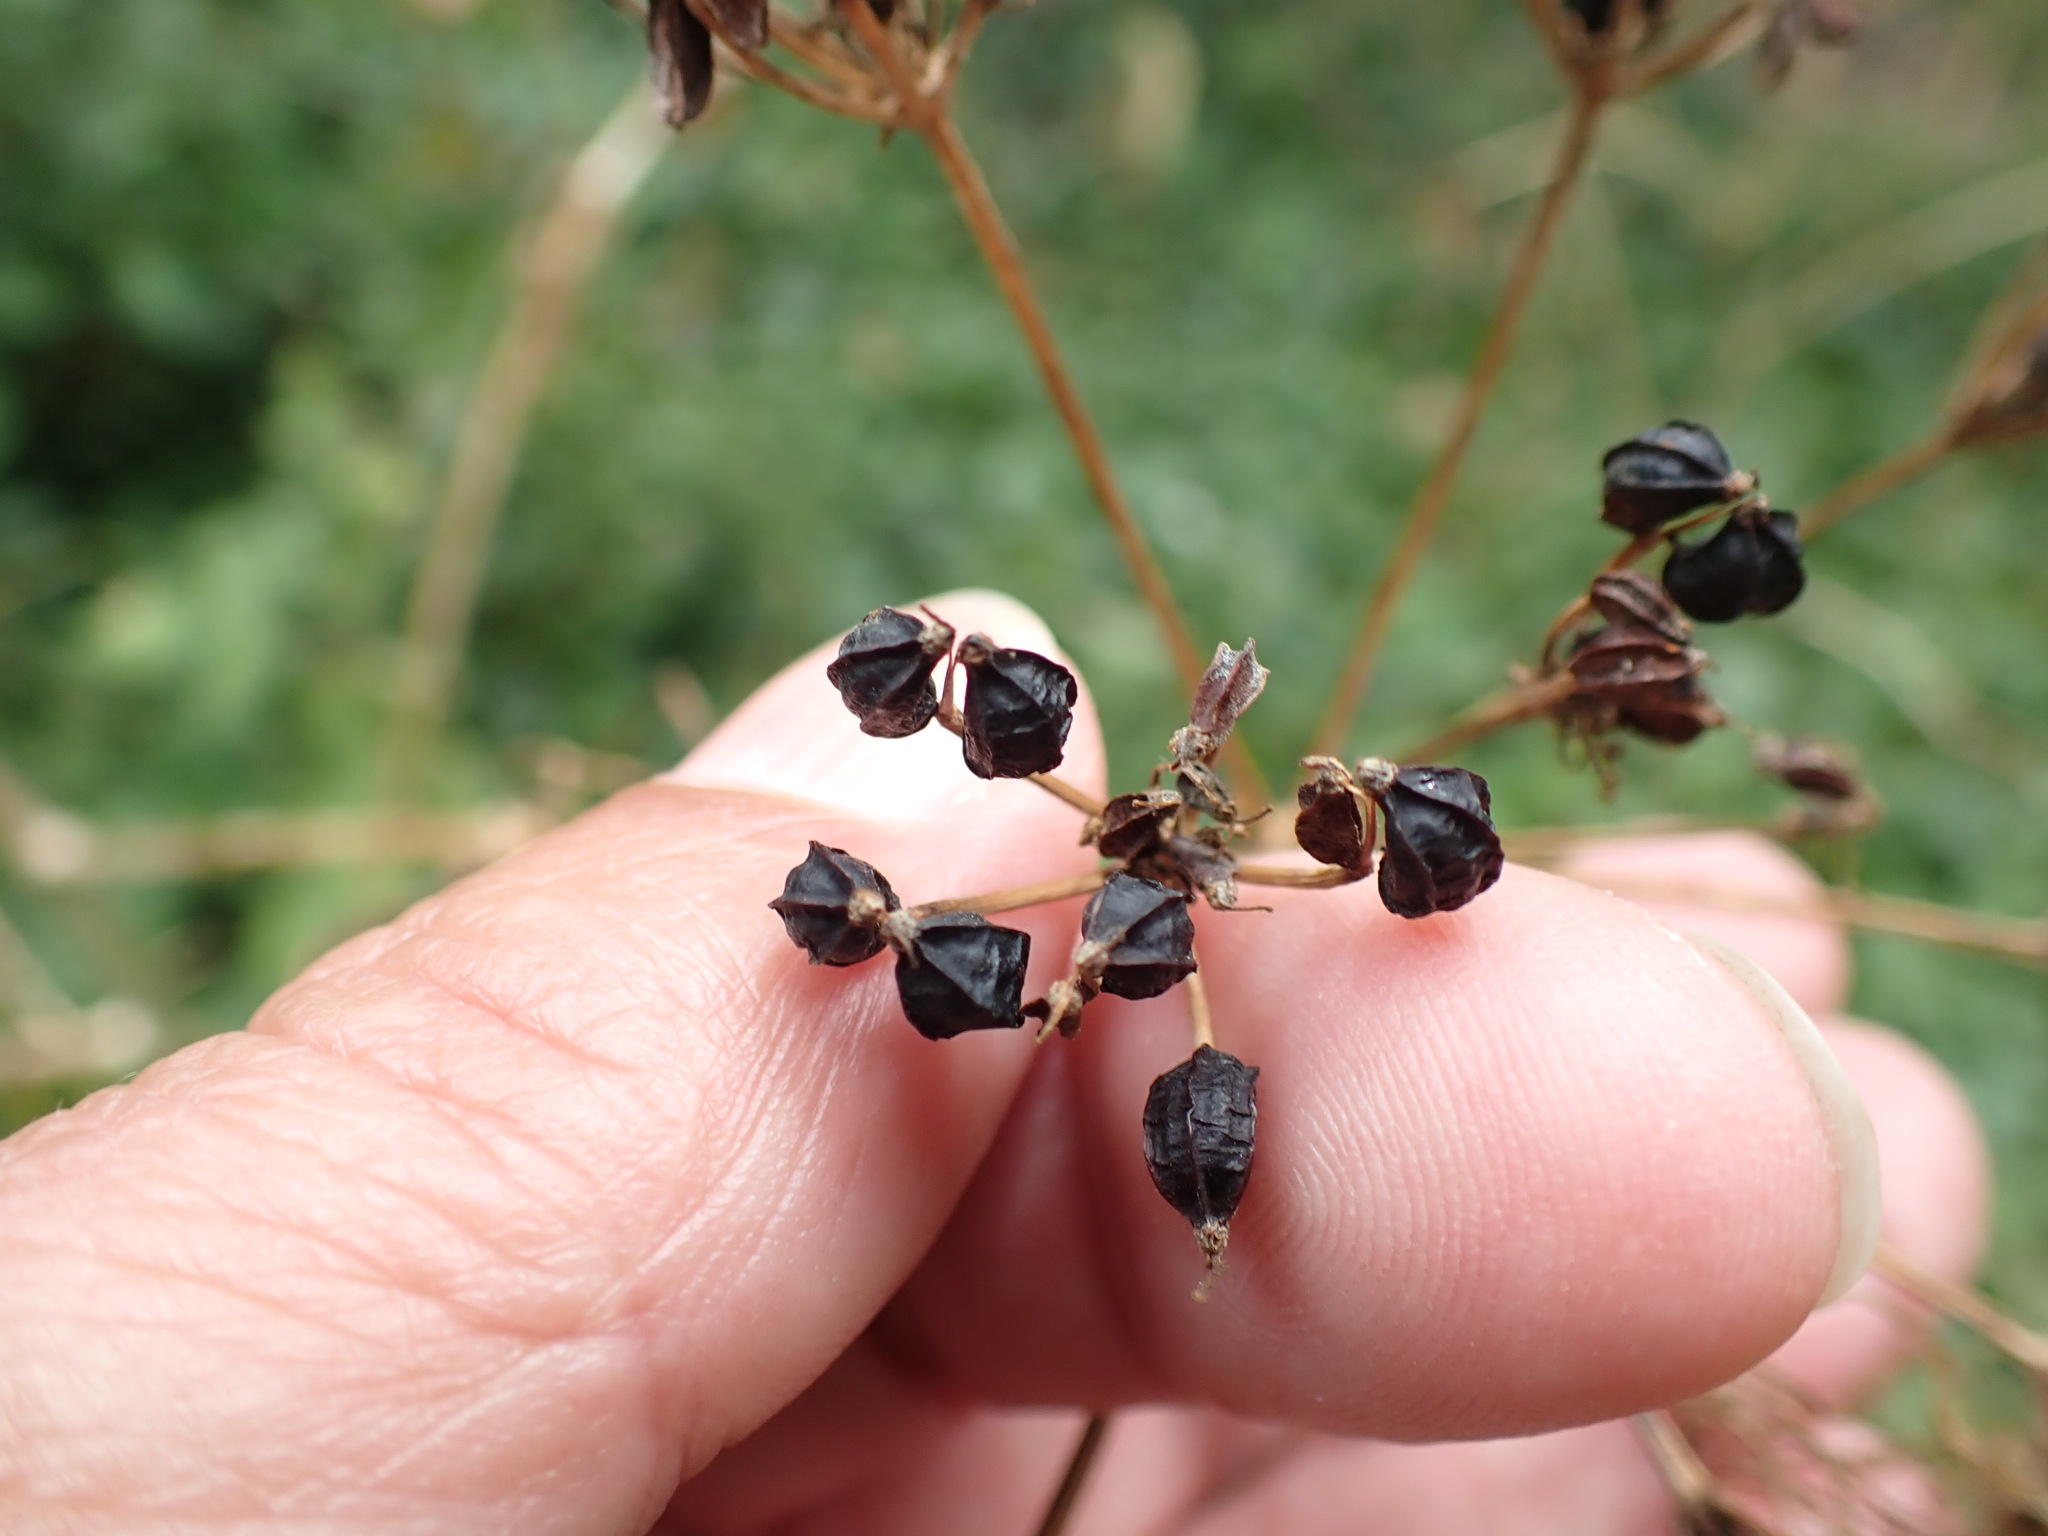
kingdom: Plantae
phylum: Tracheophyta
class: Magnoliopsida
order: Apiales
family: Apiaceae
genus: Smyrnium
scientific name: Smyrnium olusatrum
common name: Alexanders
